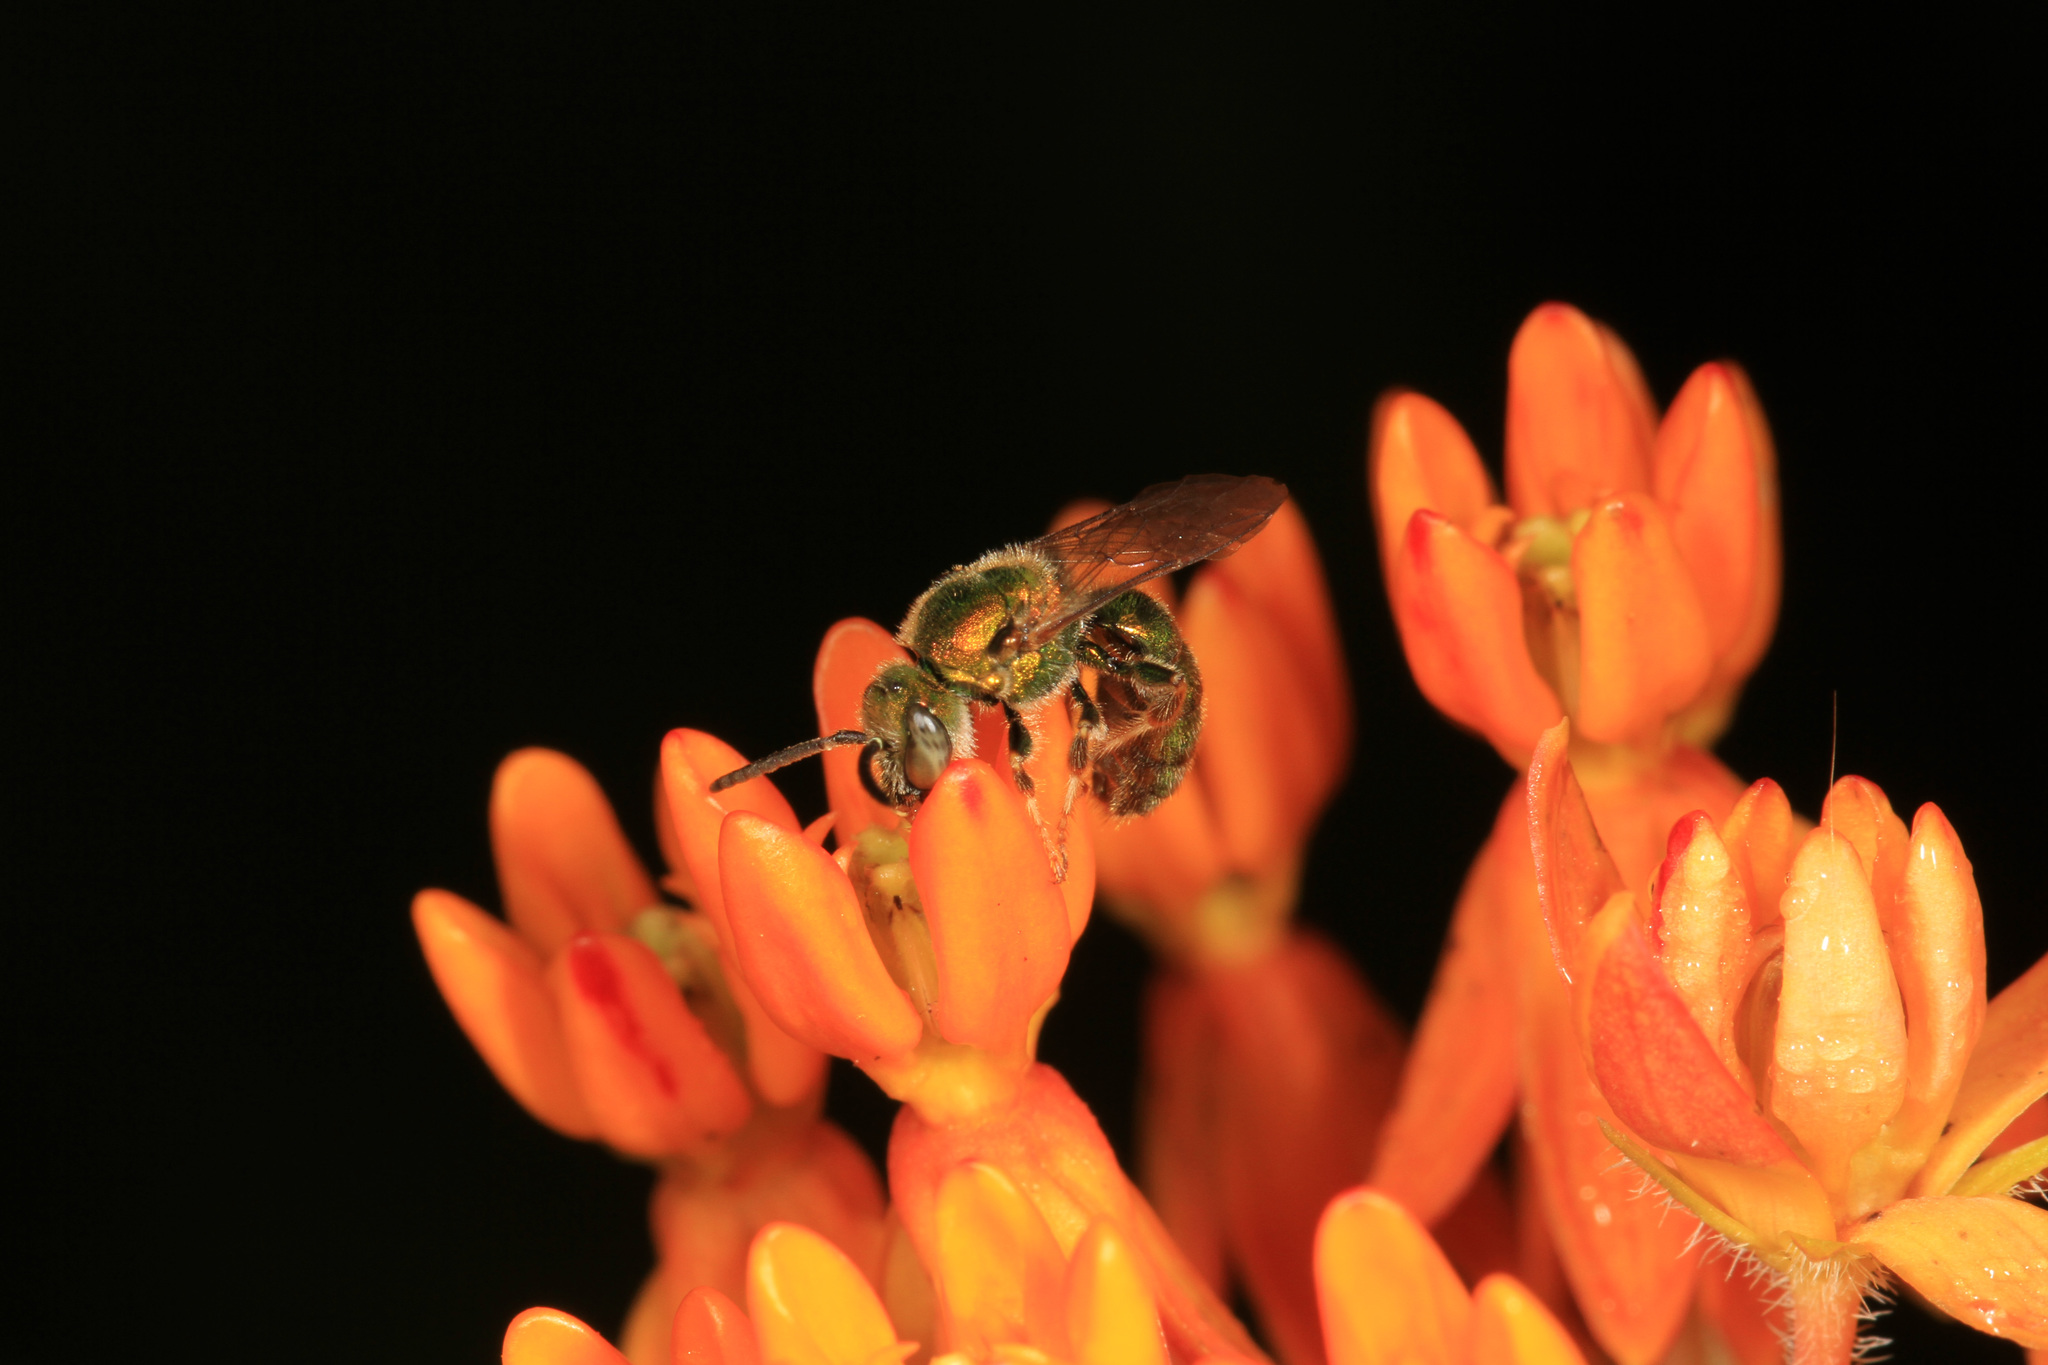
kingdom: Plantae
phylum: Tracheophyta
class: Magnoliopsida
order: Gentianales
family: Apocynaceae
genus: Asclepias
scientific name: Asclepias tuberosa
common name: Butterfly milkweed
